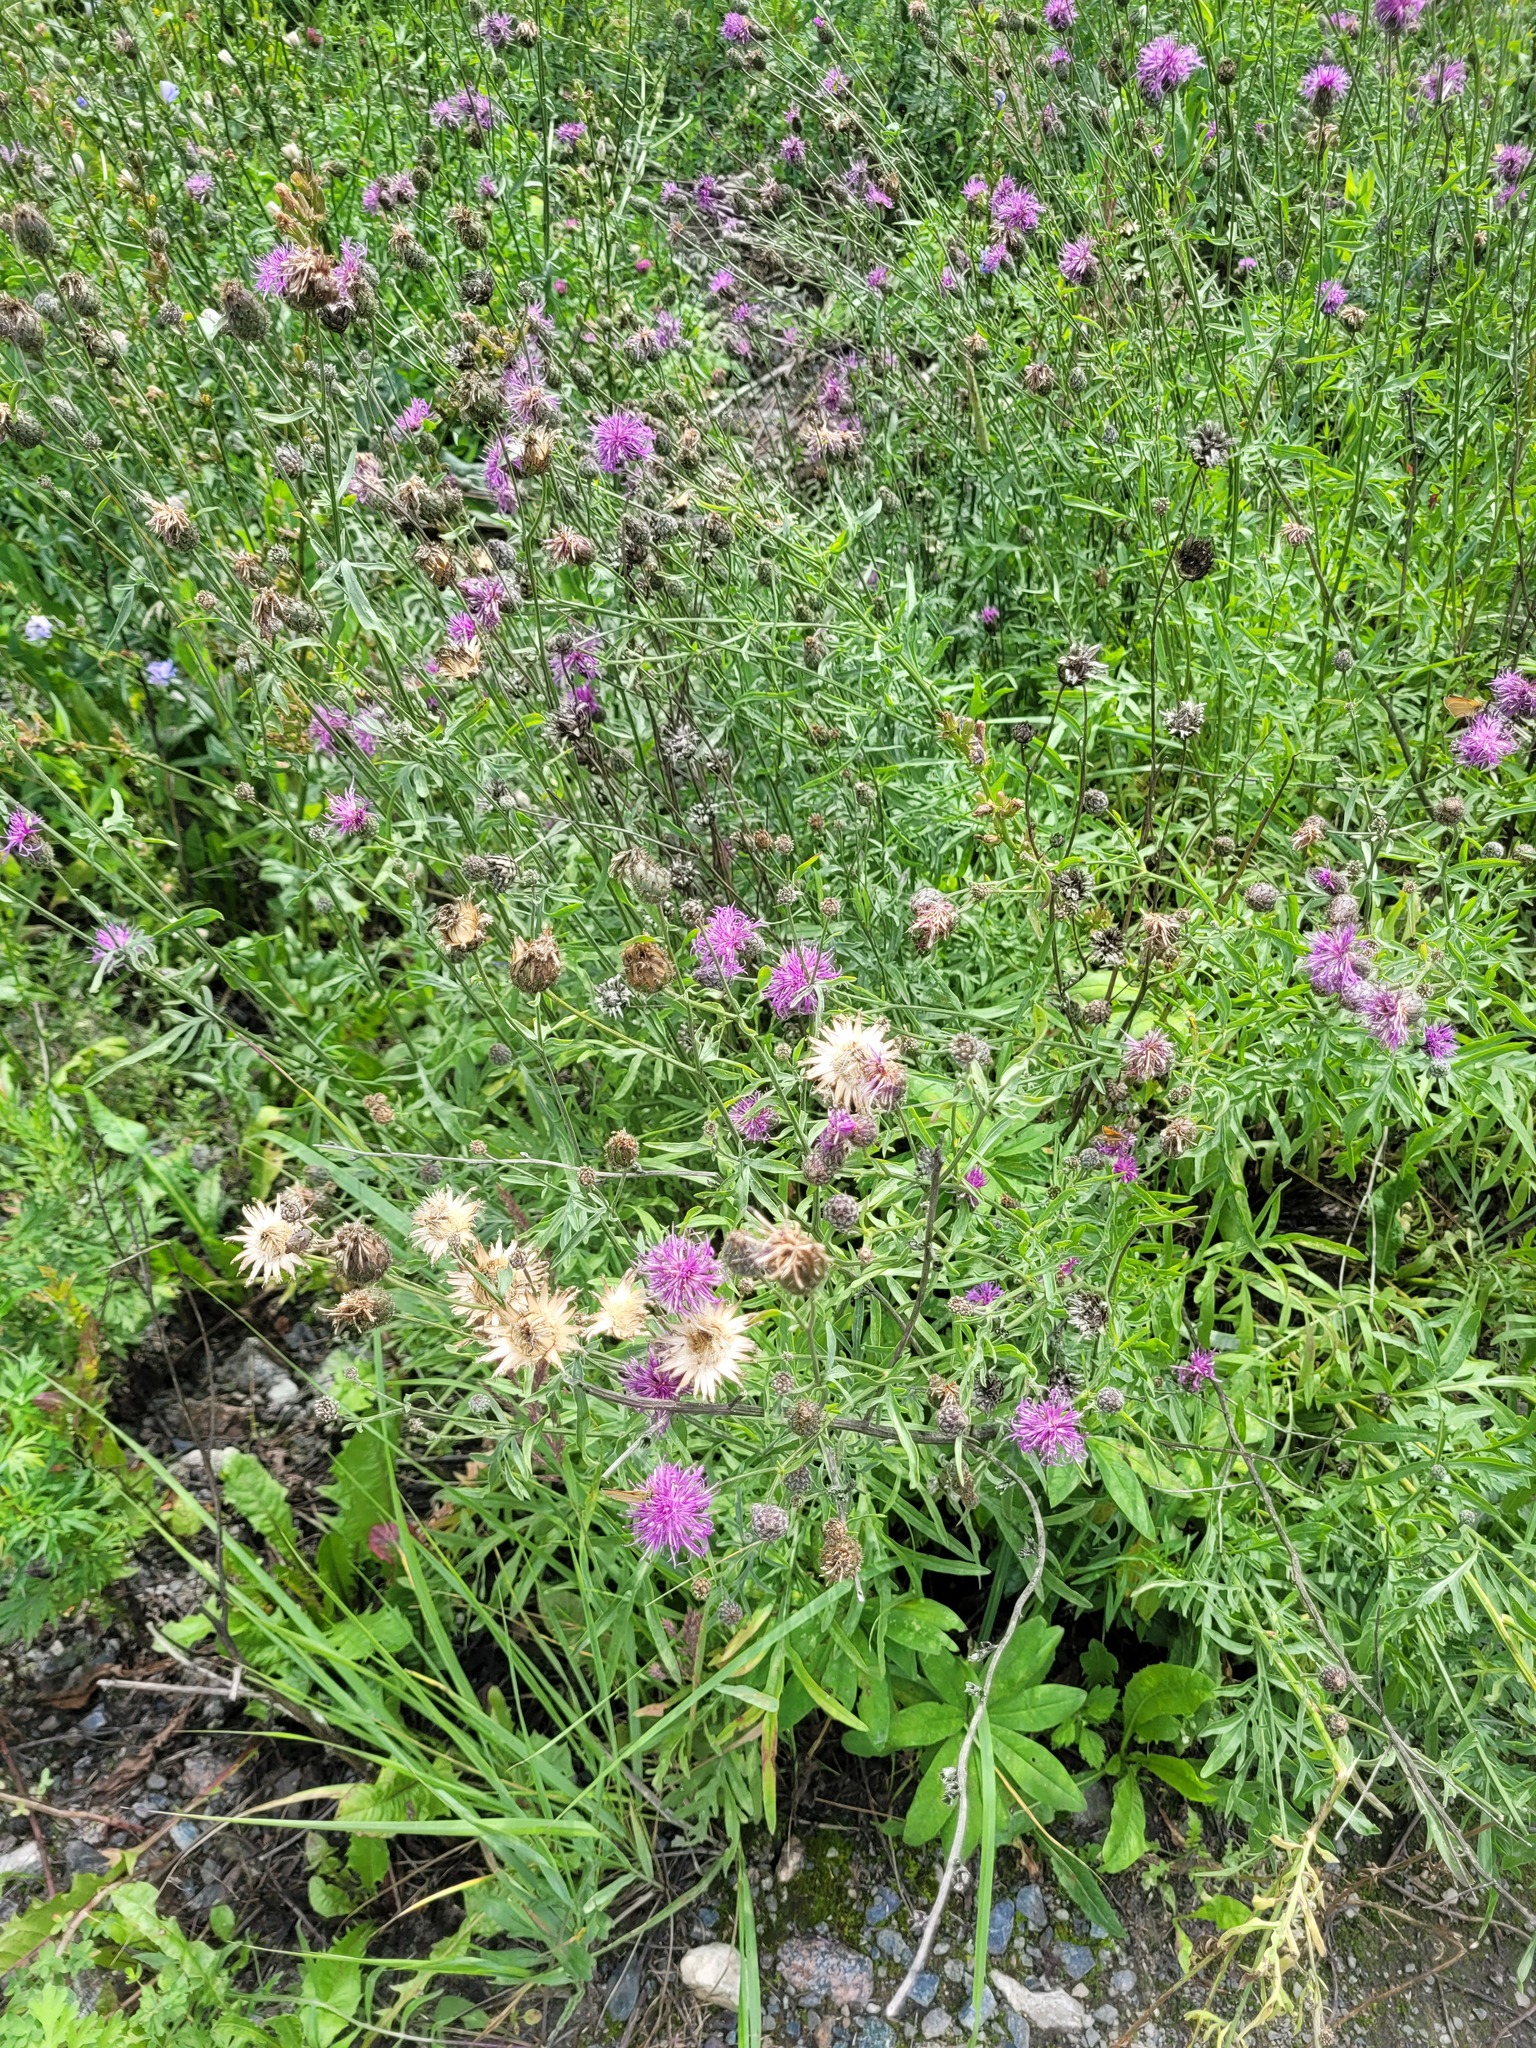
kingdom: Plantae
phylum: Tracheophyta
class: Magnoliopsida
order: Asterales
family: Asteraceae
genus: Centaurea
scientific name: Centaurea scabiosa
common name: Greater knapweed
